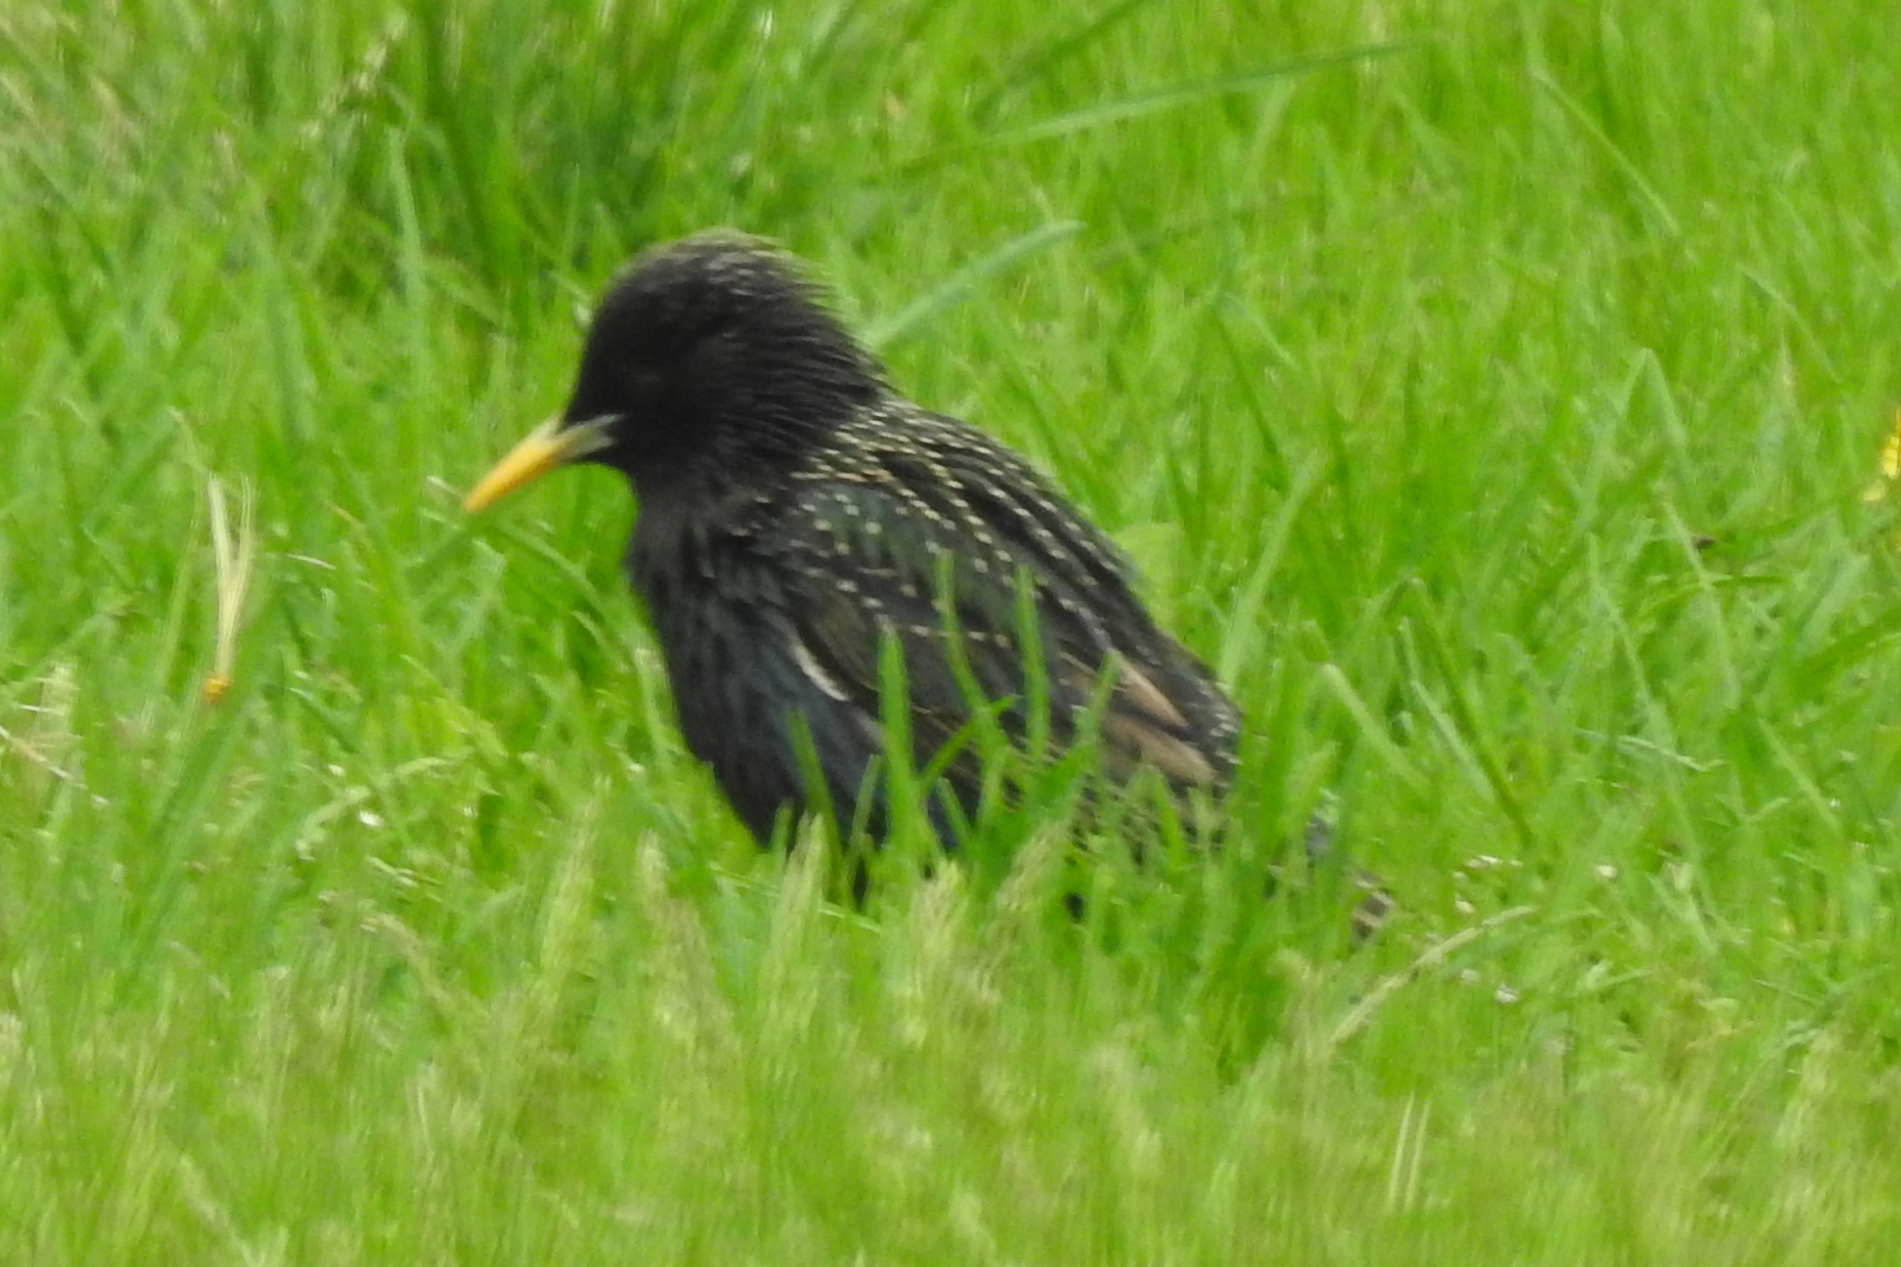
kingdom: Animalia
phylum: Chordata
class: Aves
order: Passeriformes
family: Sturnidae
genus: Sturnus
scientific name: Sturnus vulgaris
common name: Common starling
